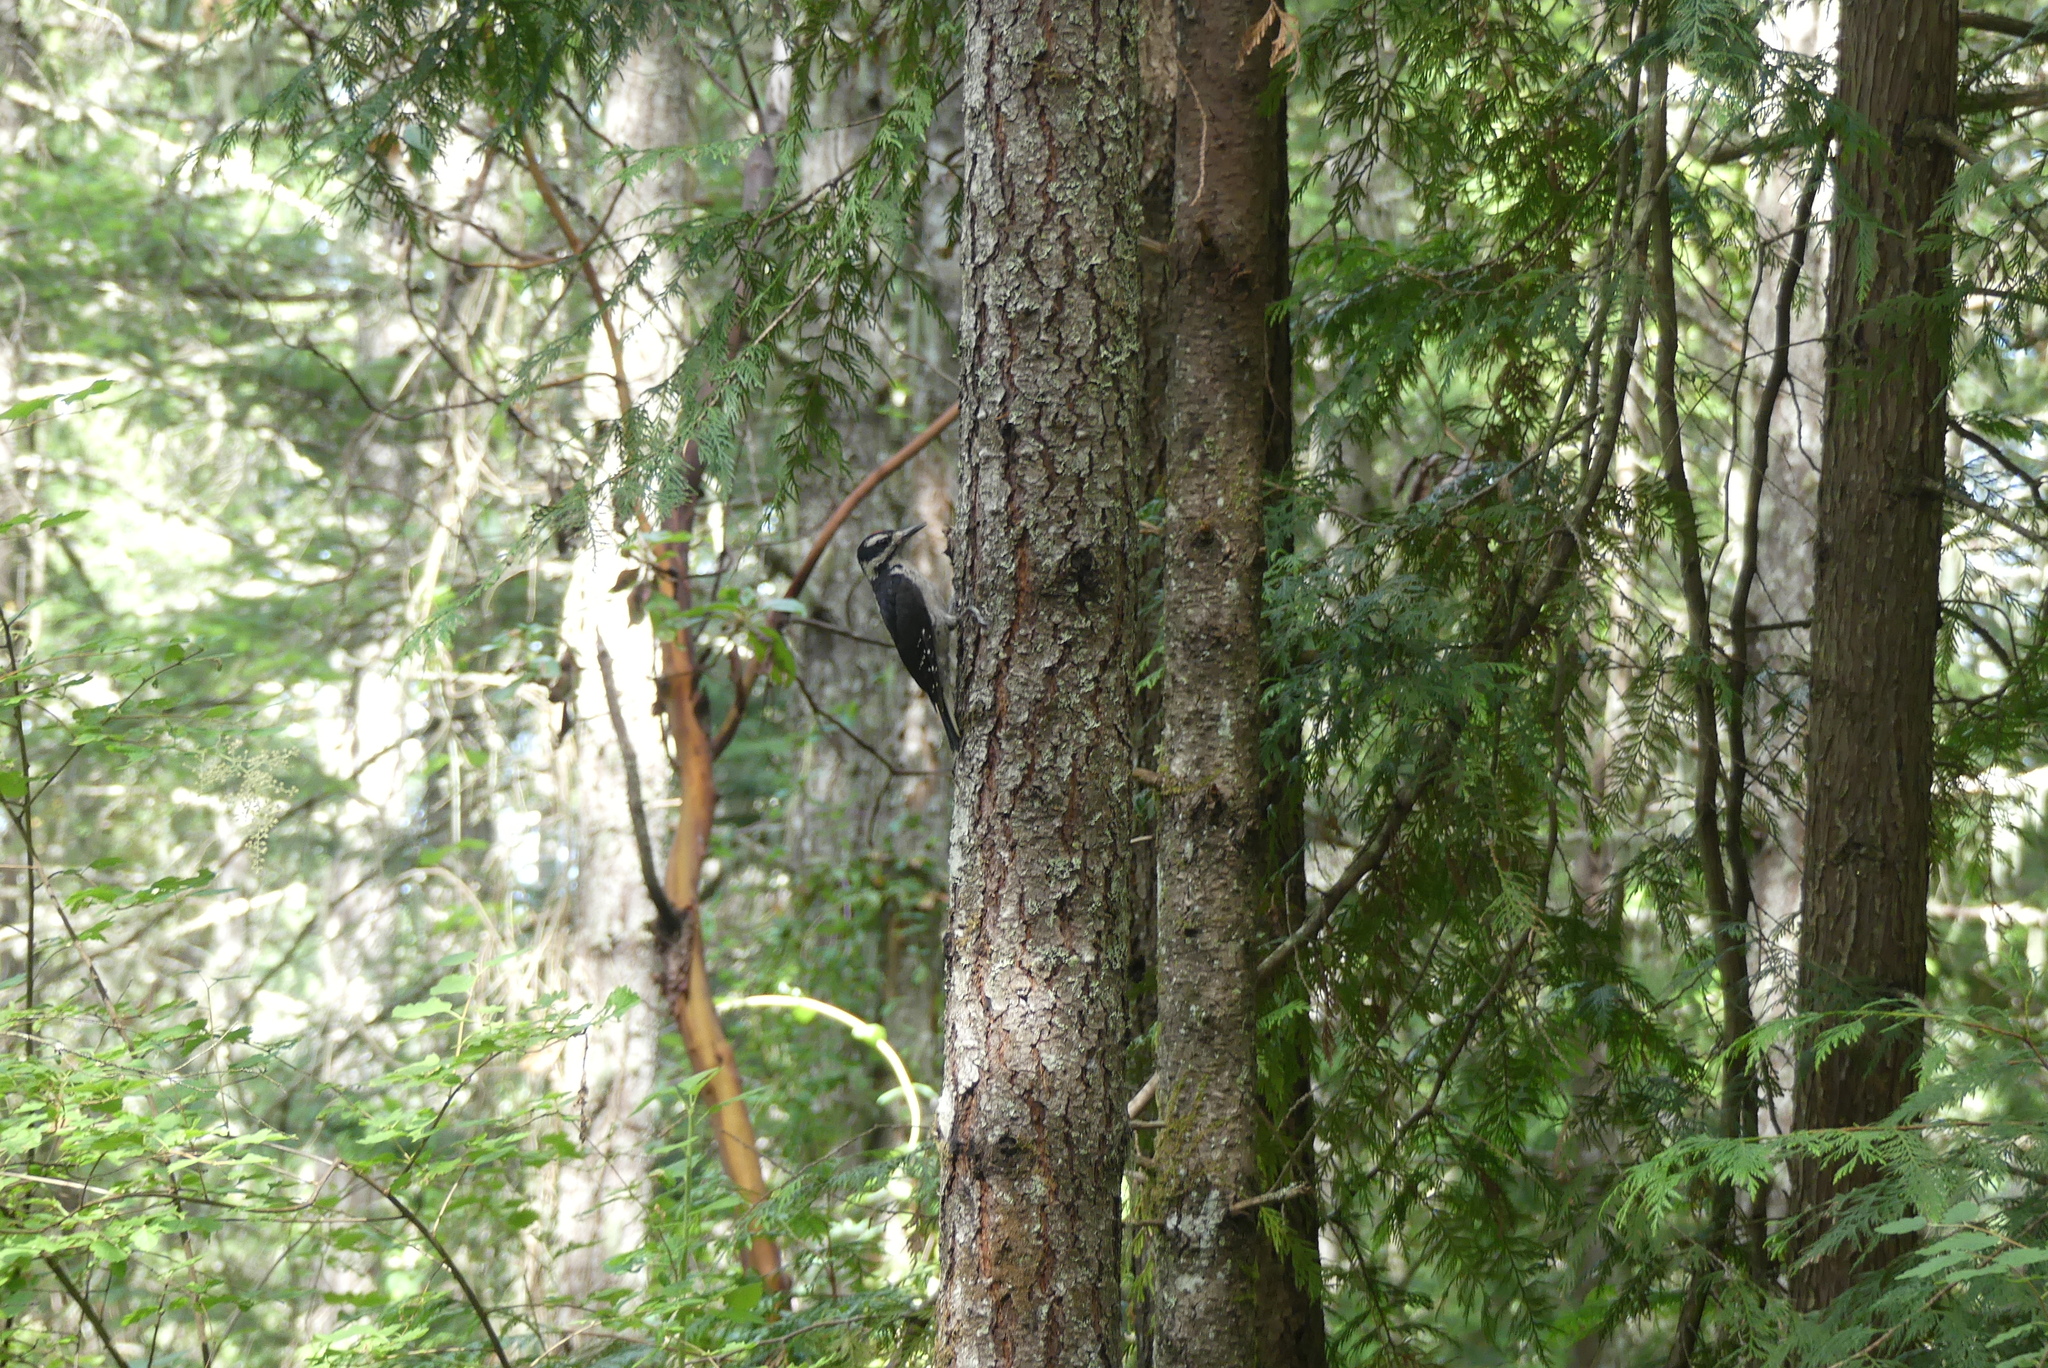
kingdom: Animalia
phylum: Chordata
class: Aves
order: Piciformes
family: Picidae
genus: Leuconotopicus
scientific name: Leuconotopicus villosus
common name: Hairy woodpecker
